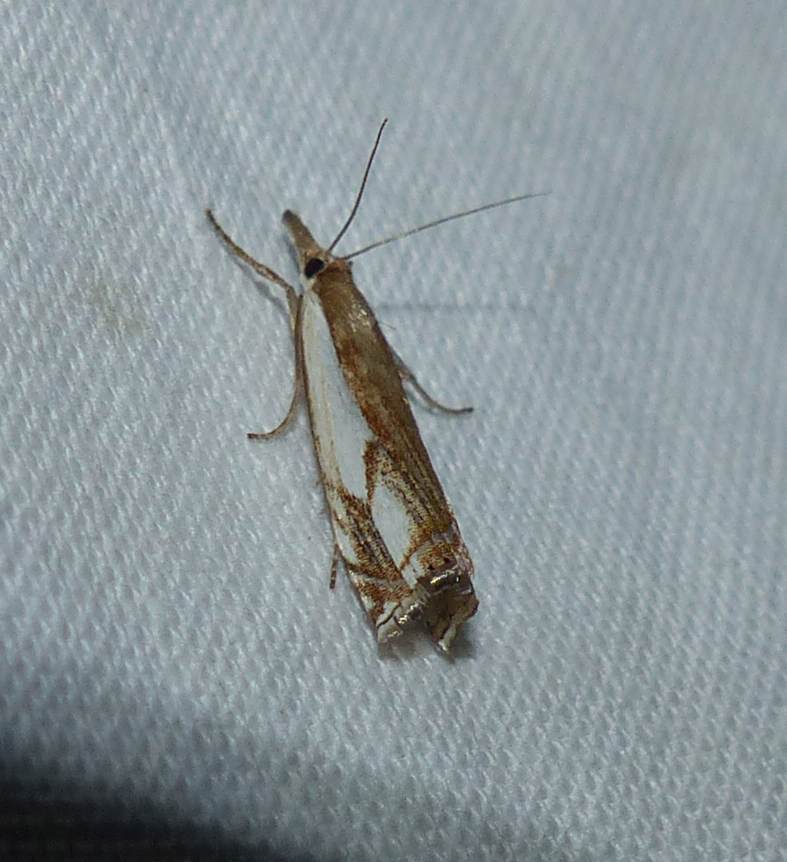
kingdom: Animalia
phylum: Arthropoda
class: Insecta
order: Lepidoptera
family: Crambidae
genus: Crambus
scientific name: Crambus agitatellus
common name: Double-banded grass-veneer
